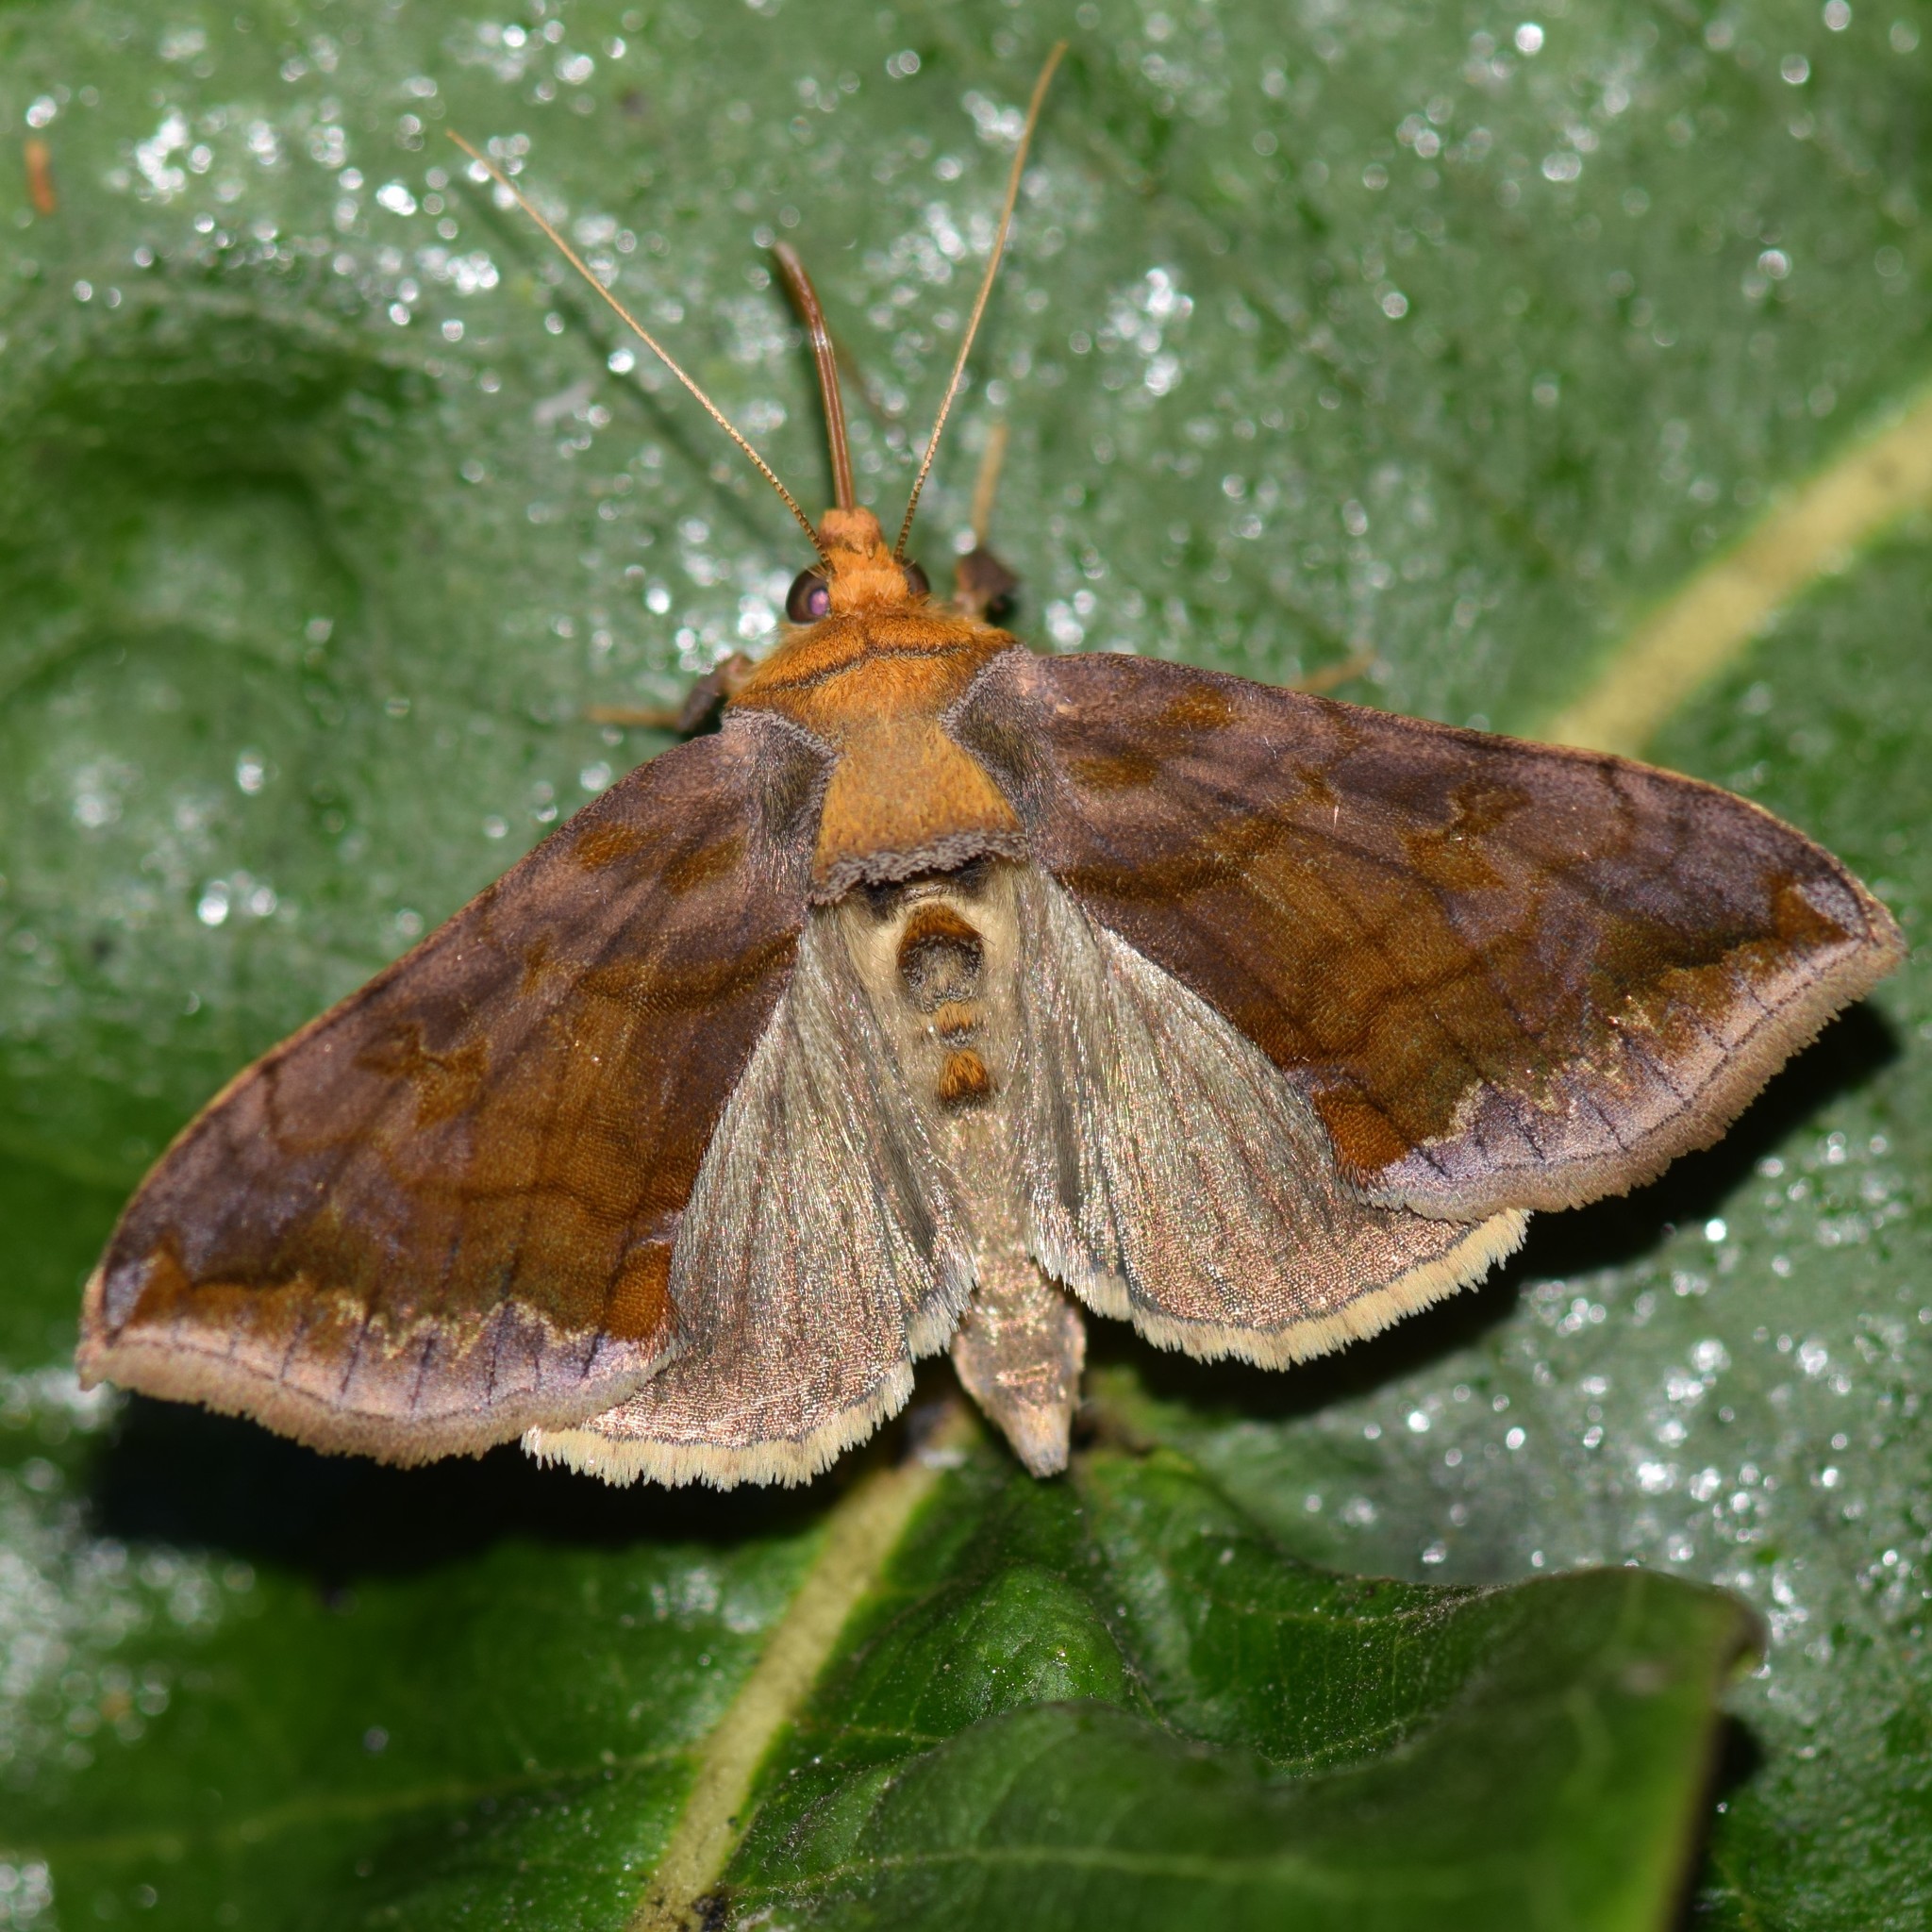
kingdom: Animalia
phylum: Arthropoda
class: Insecta
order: Lepidoptera
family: Noctuidae
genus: Allagrapha
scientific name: Allagrapha aerea
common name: Unspotted looper moth
